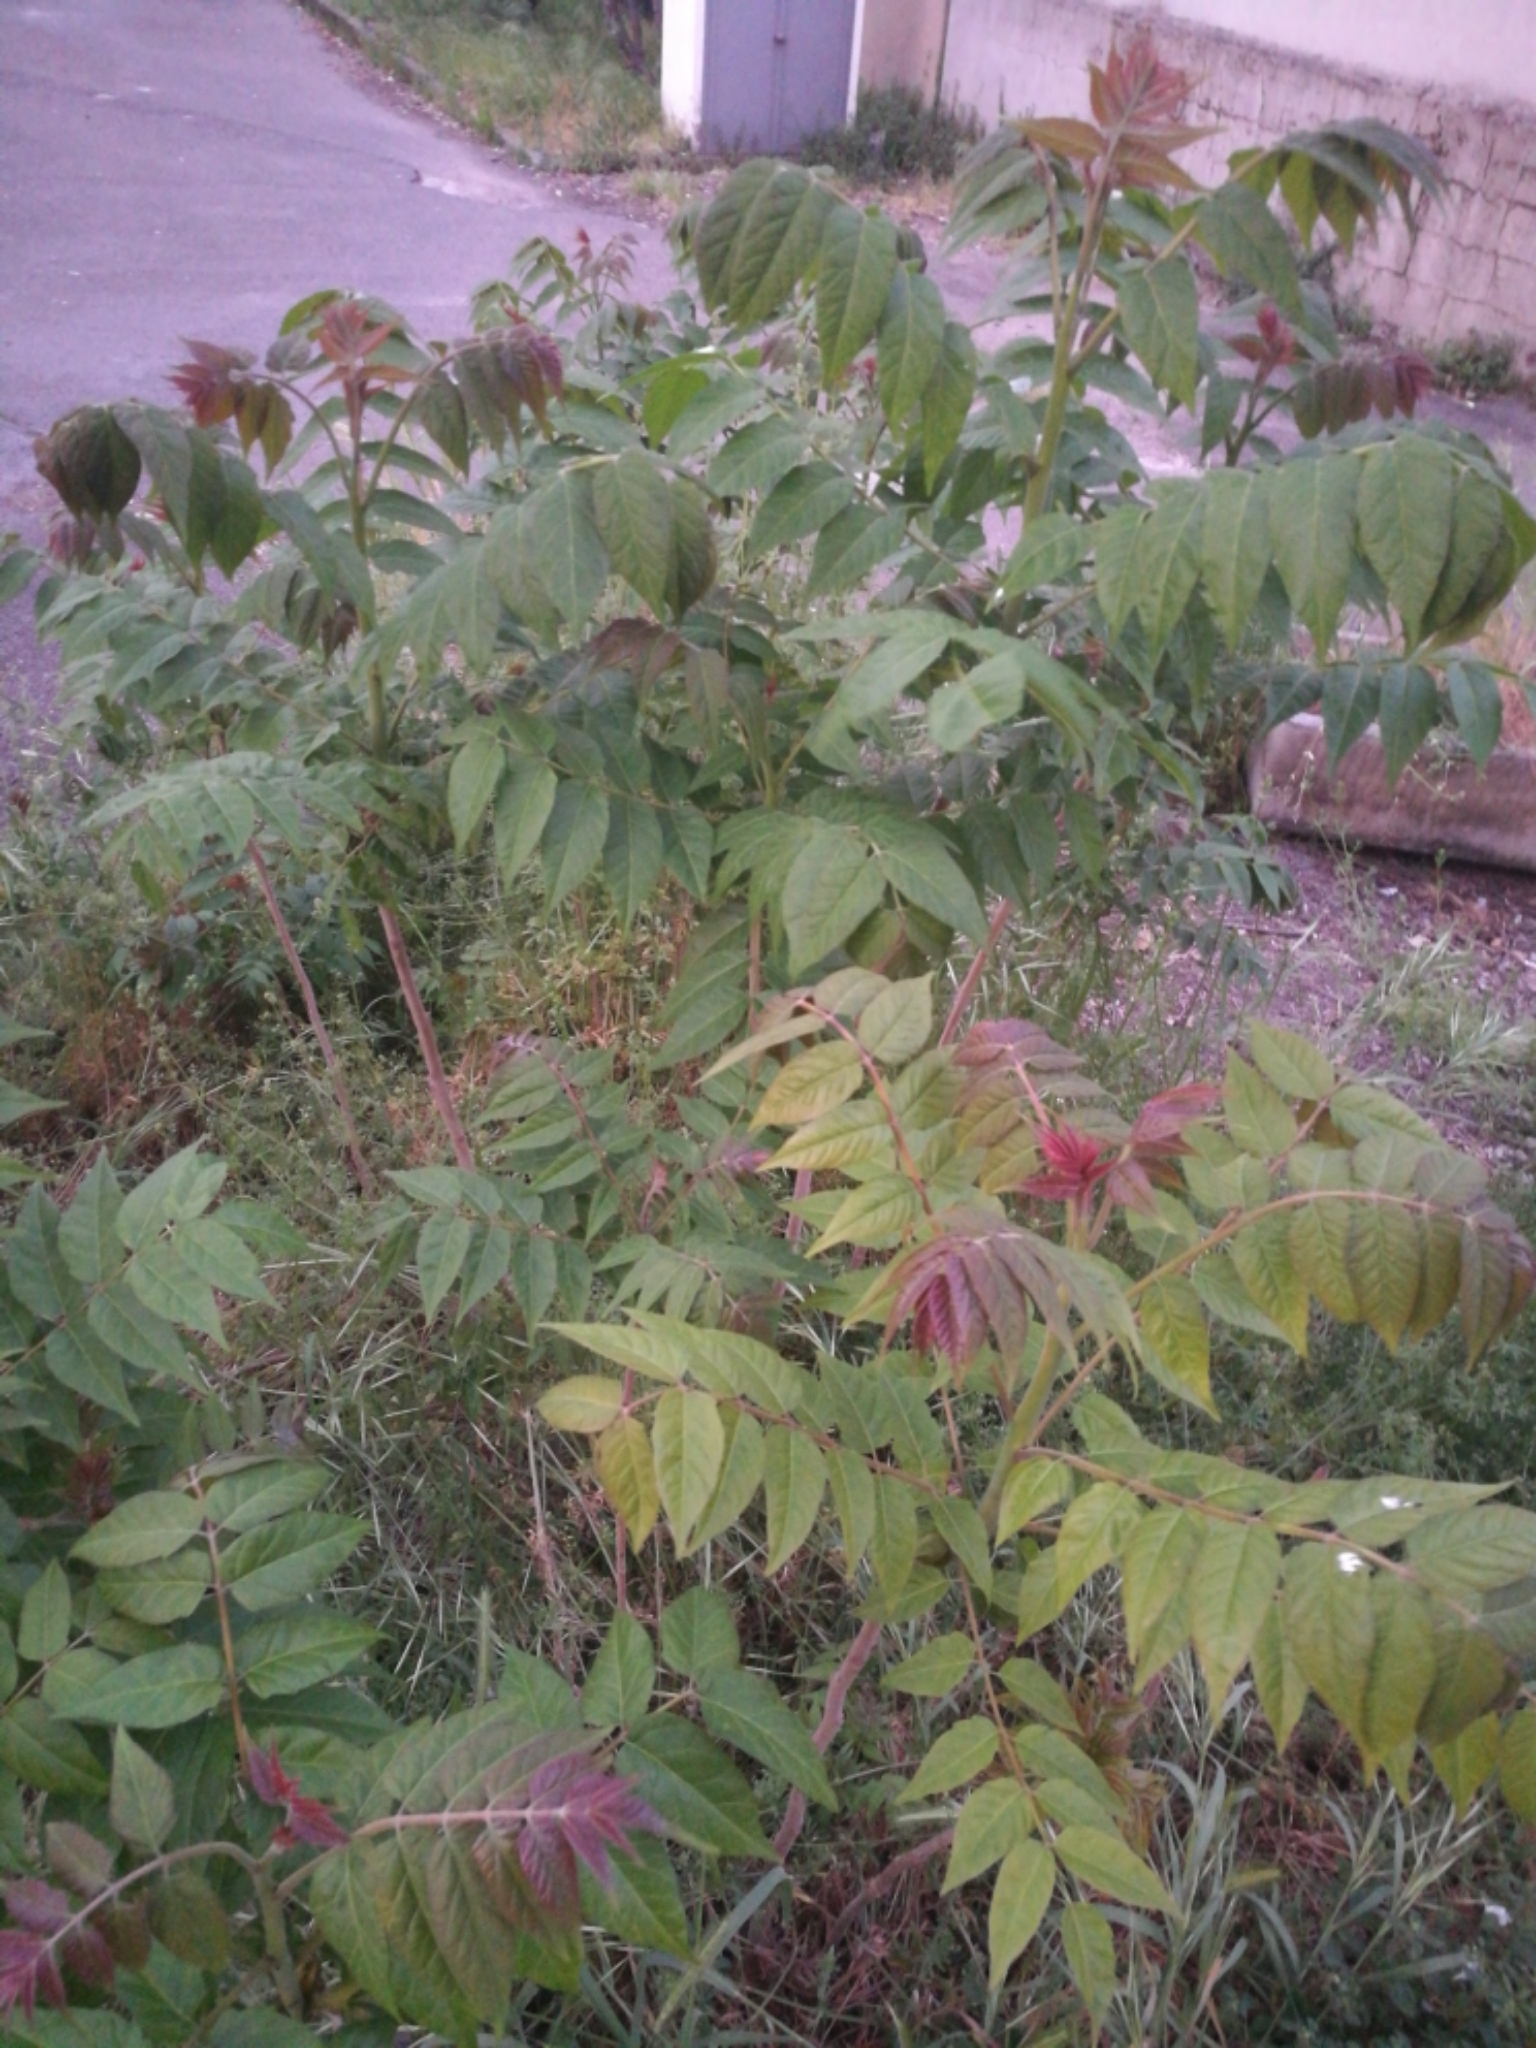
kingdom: Plantae
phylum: Tracheophyta
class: Magnoliopsida
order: Sapindales
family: Simaroubaceae
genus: Ailanthus
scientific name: Ailanthus altissima
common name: Tree-of-heaven
